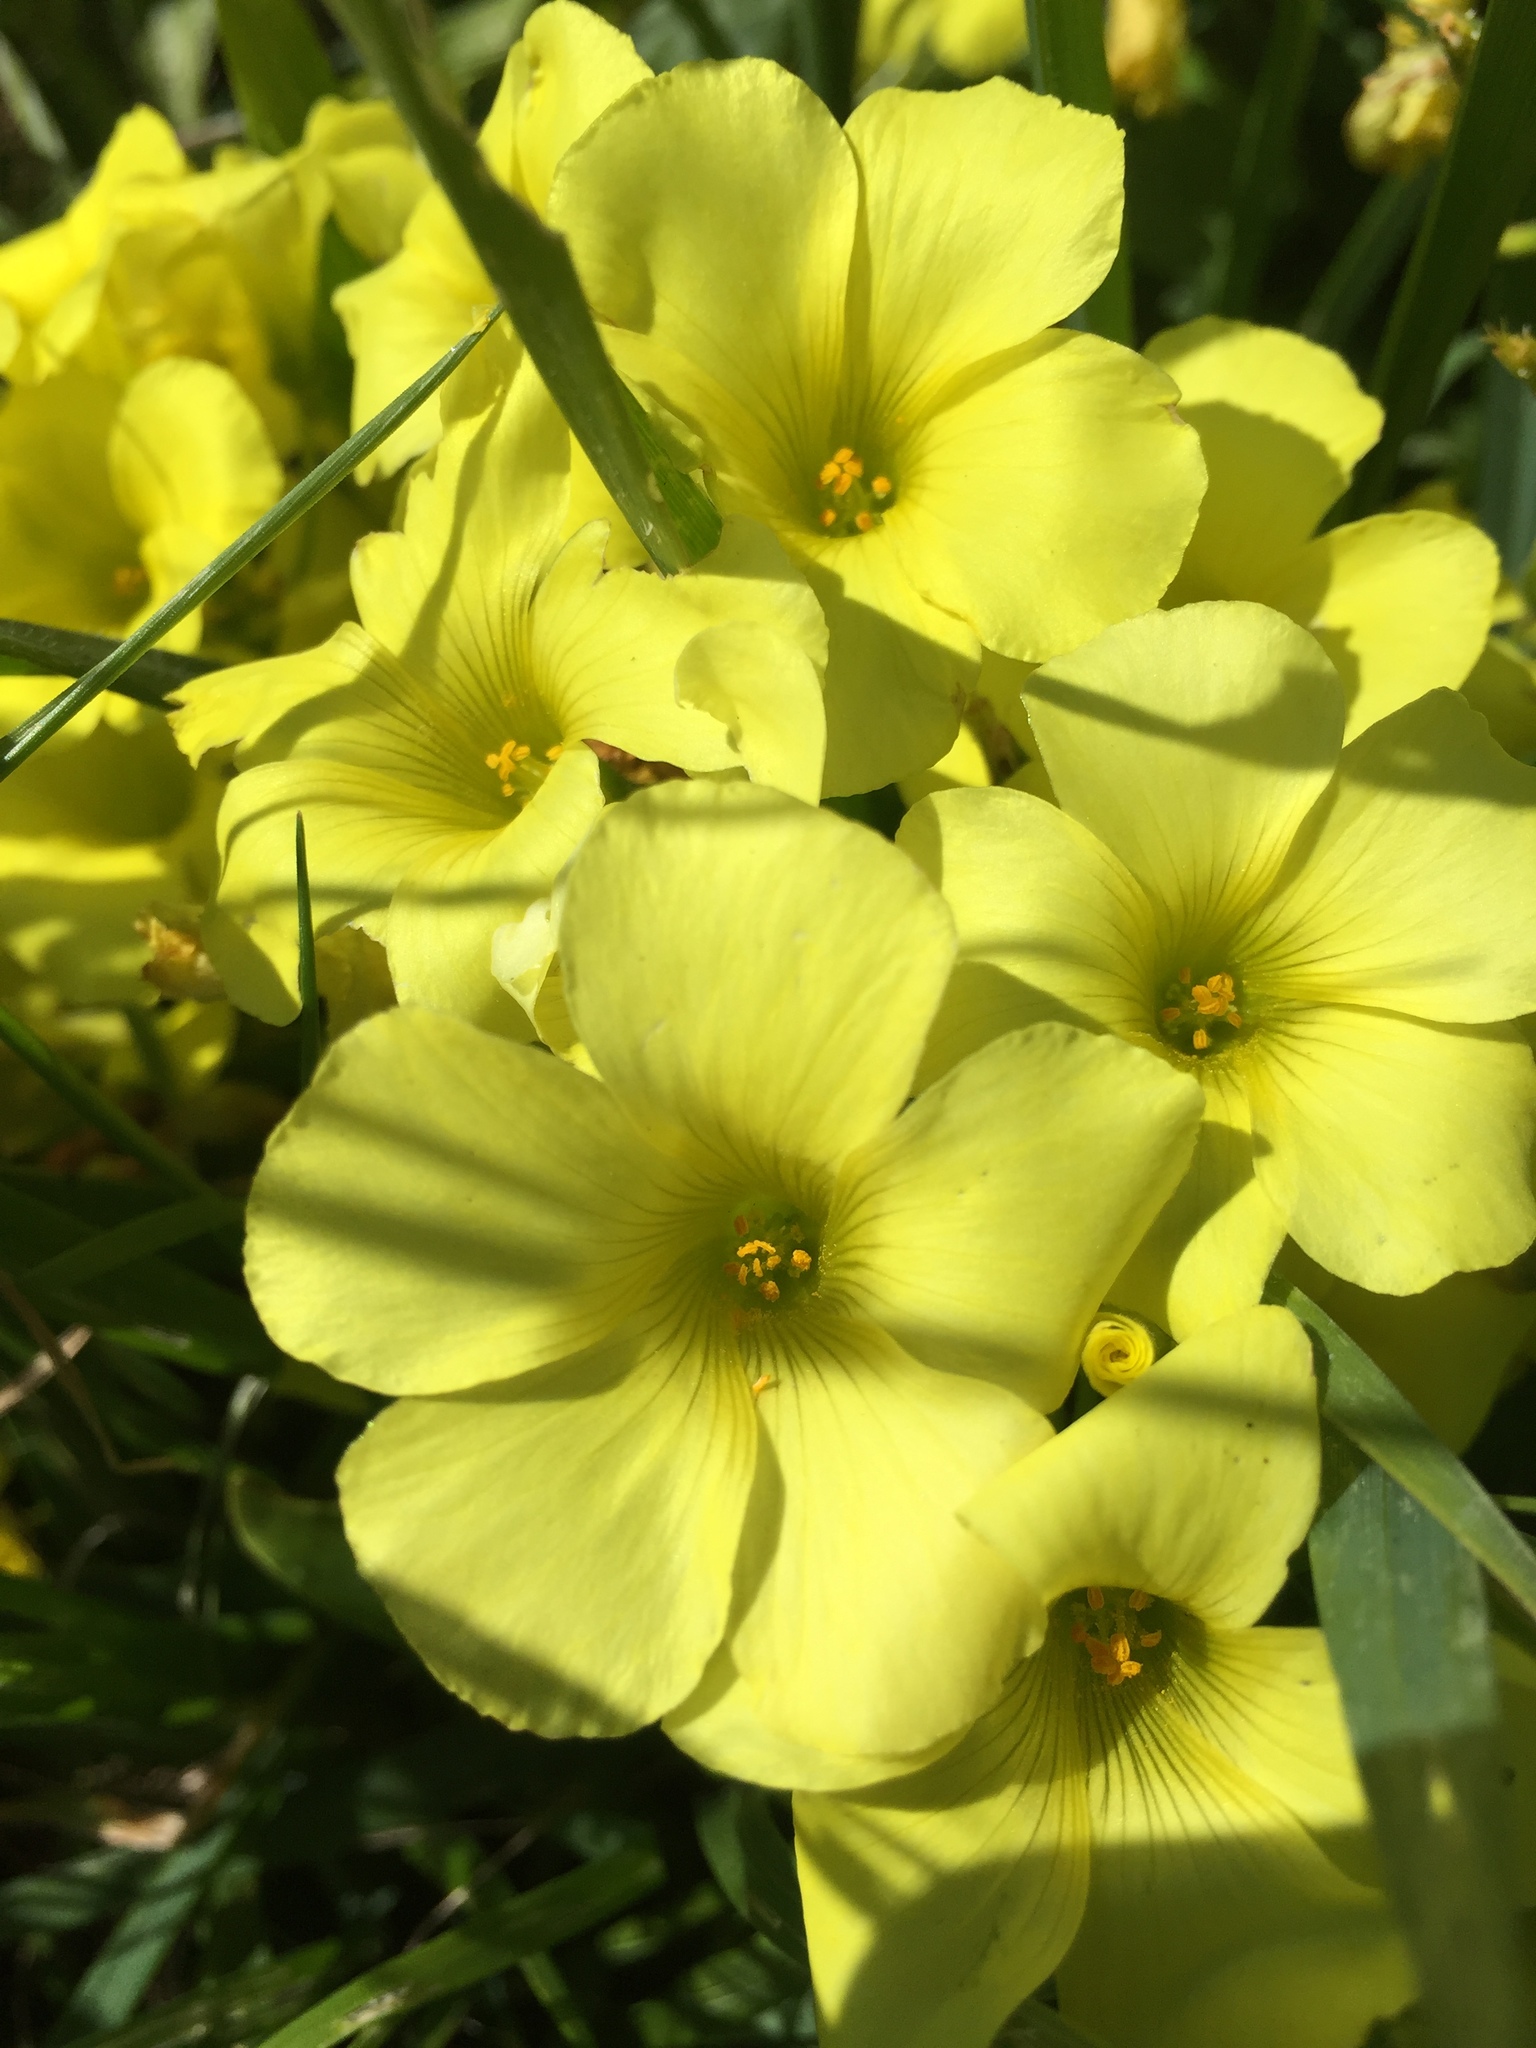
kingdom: Plantae
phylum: Tracheophyta
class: Magnoliopsida
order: Oxalidales
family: Oxalidaceae
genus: Oxalis
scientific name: Oxalis pes-caprae
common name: Bermuda-buttercup
